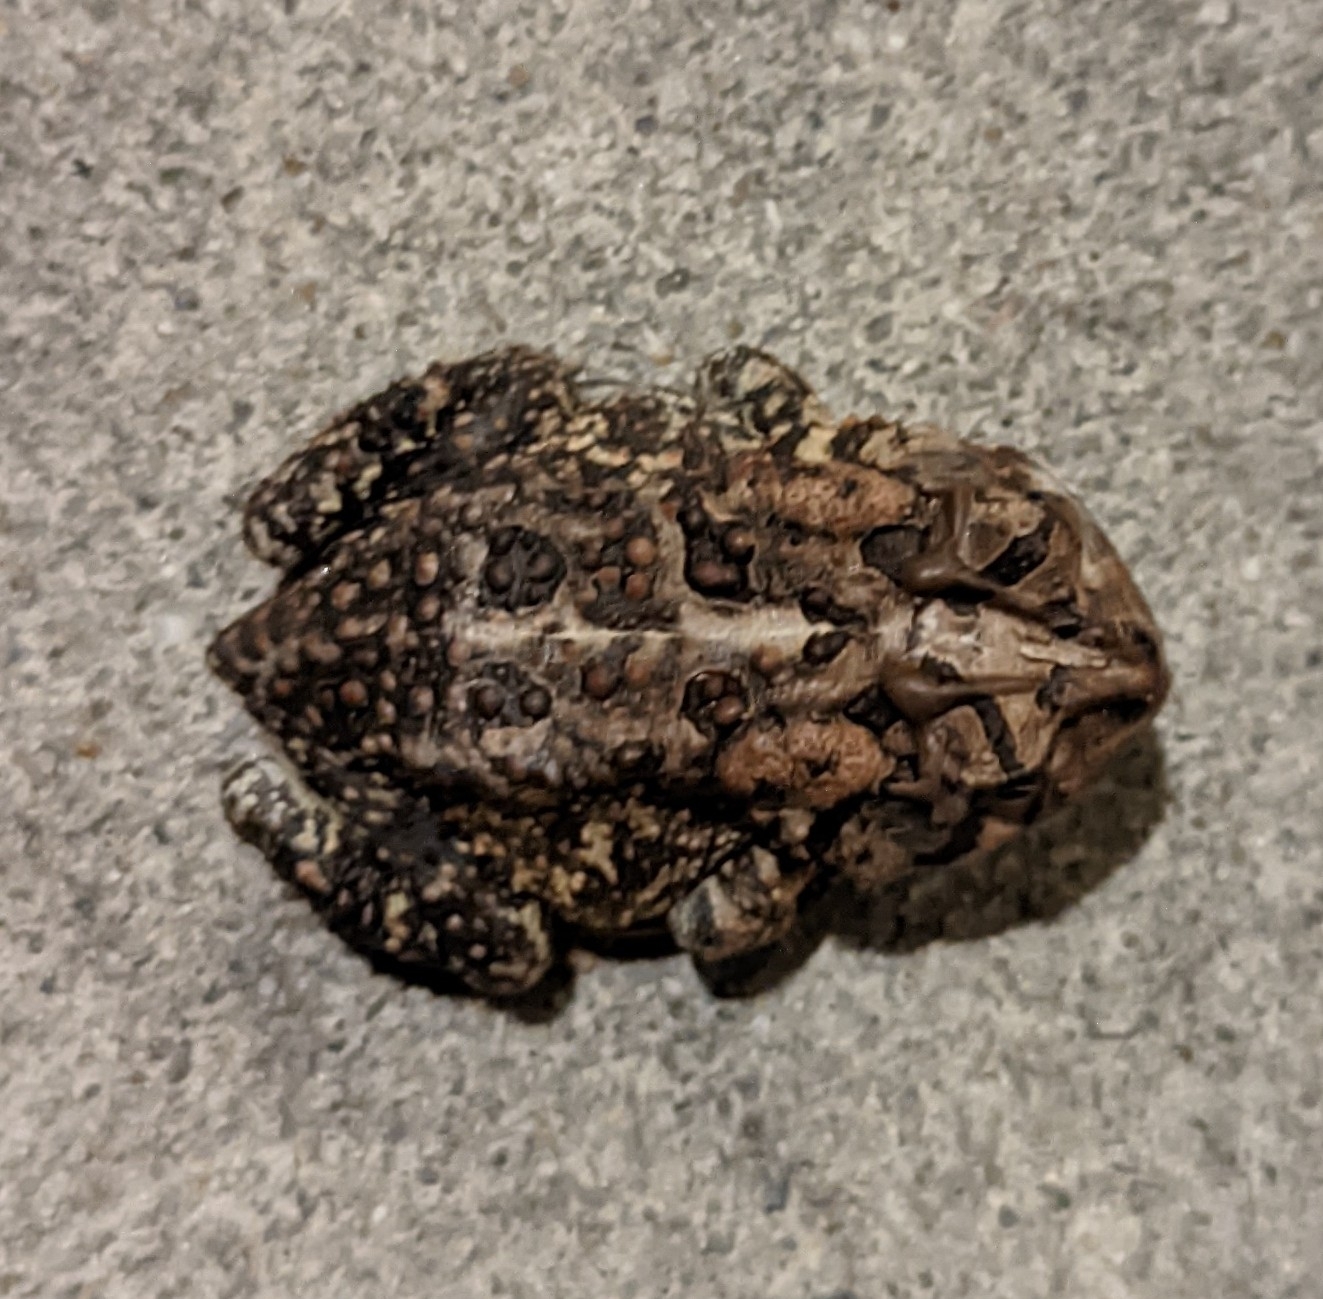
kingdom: Animalia
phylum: Chordata
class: Amphibia
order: Anura
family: Bufonidae
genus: Anaxyrus
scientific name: Anaxyrus terrestris
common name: Southern toad
